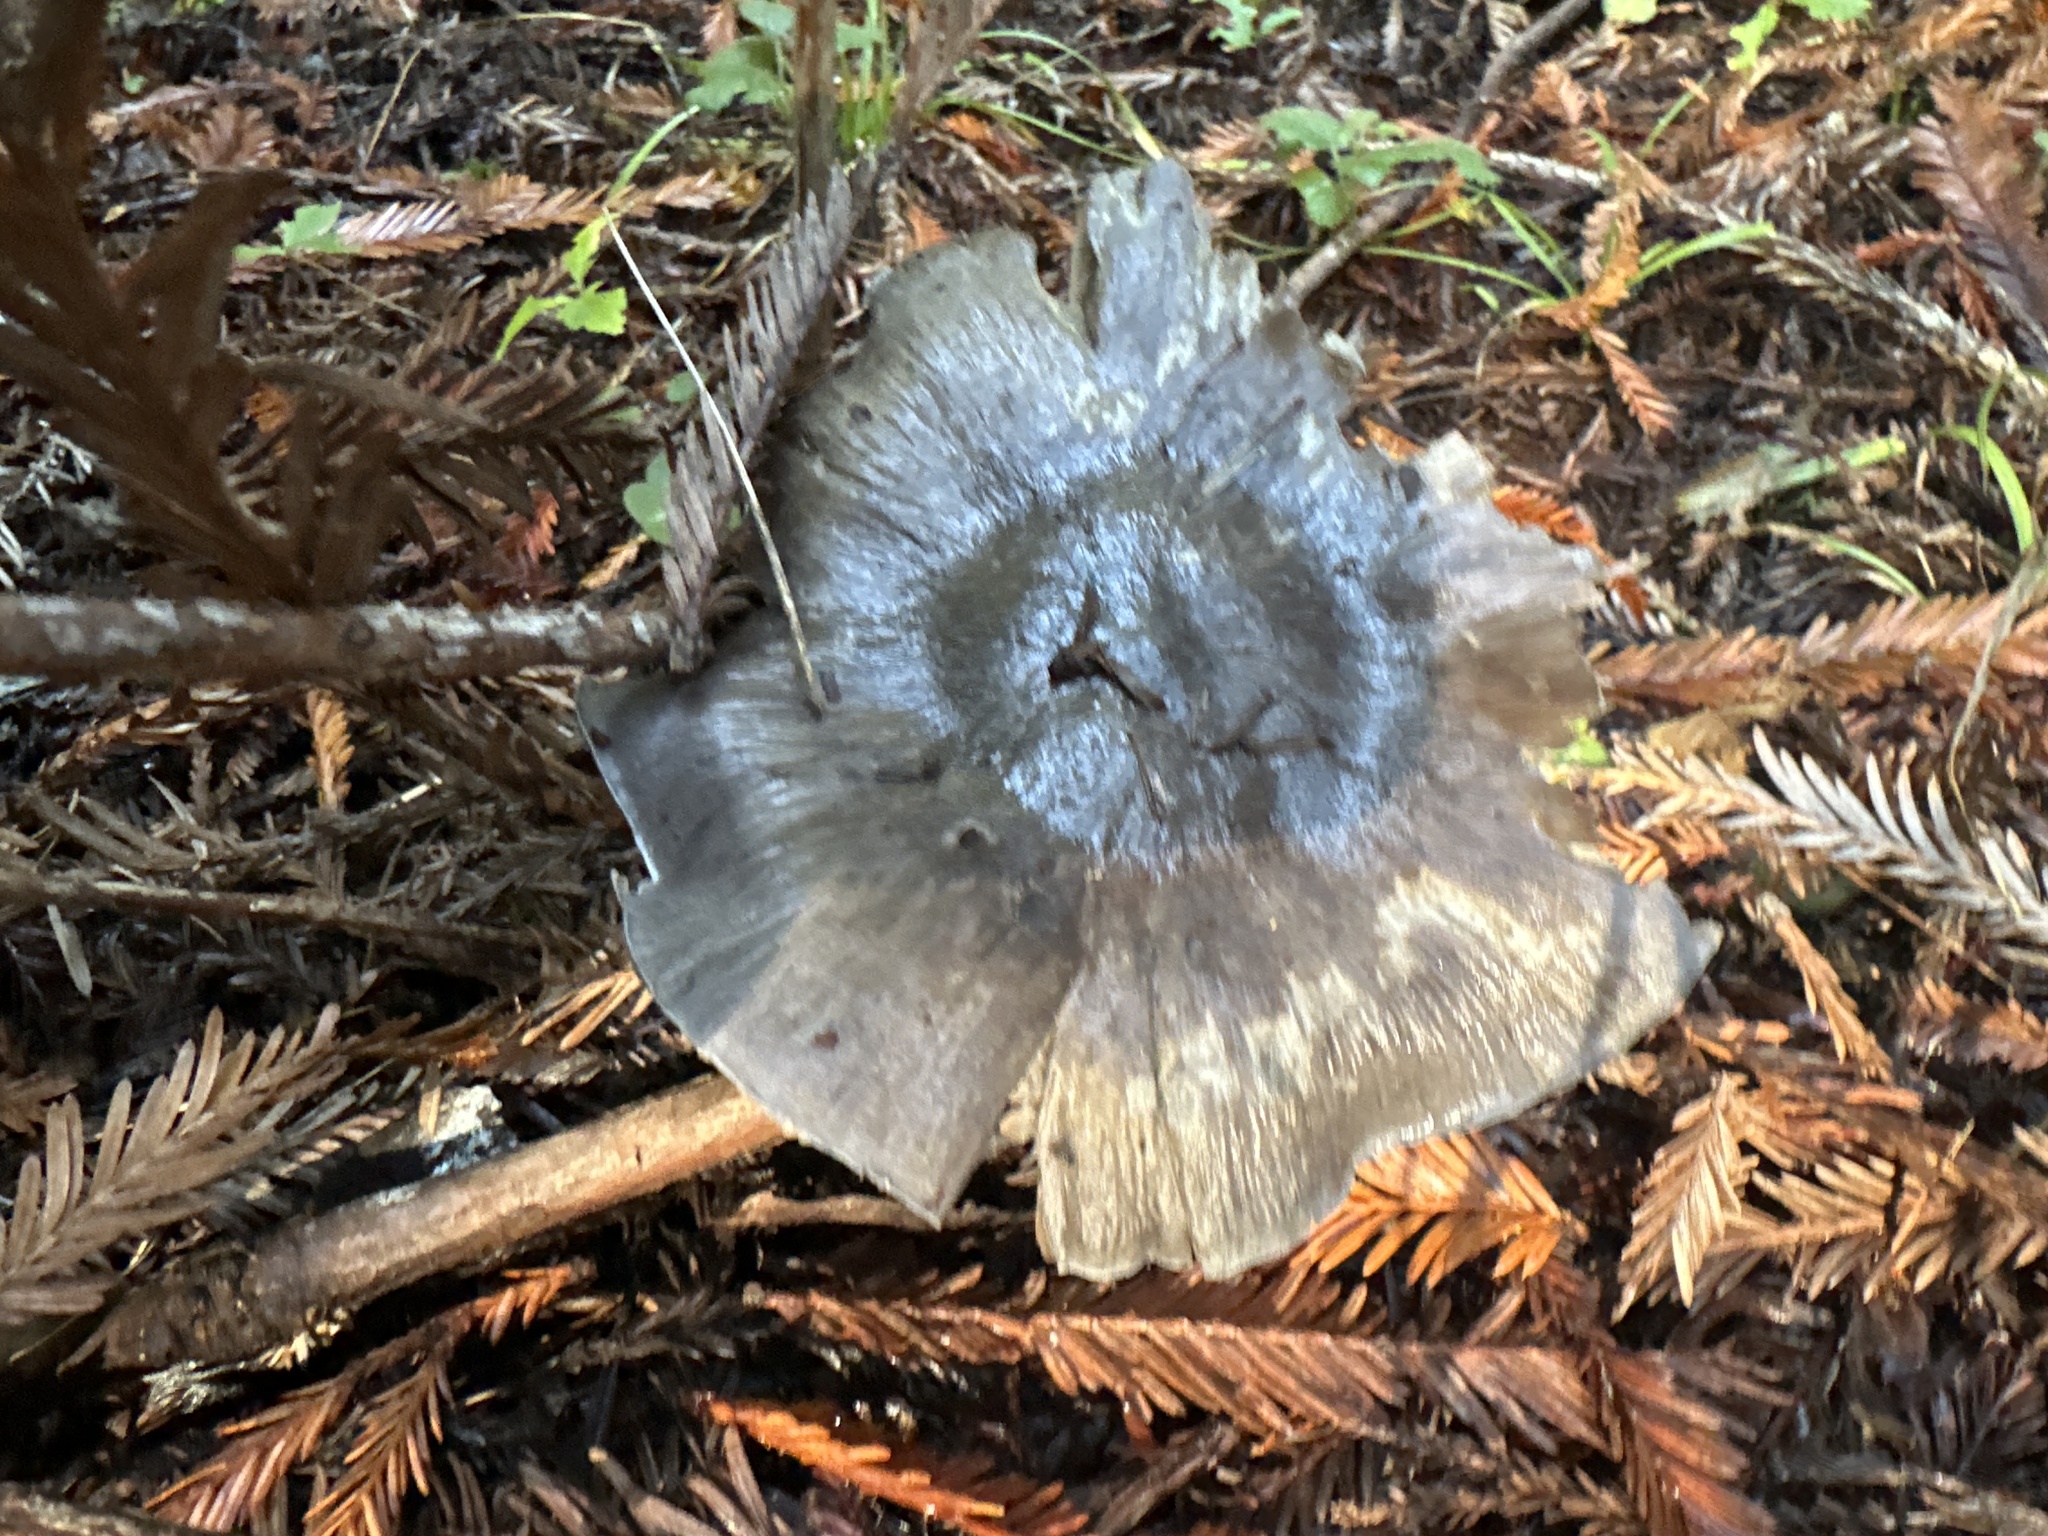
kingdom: Fungi
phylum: Basidiomycota
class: Agaricomycetes
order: Agaricales
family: Entolomataceae
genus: Entoloma
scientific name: Entoloma medianox
